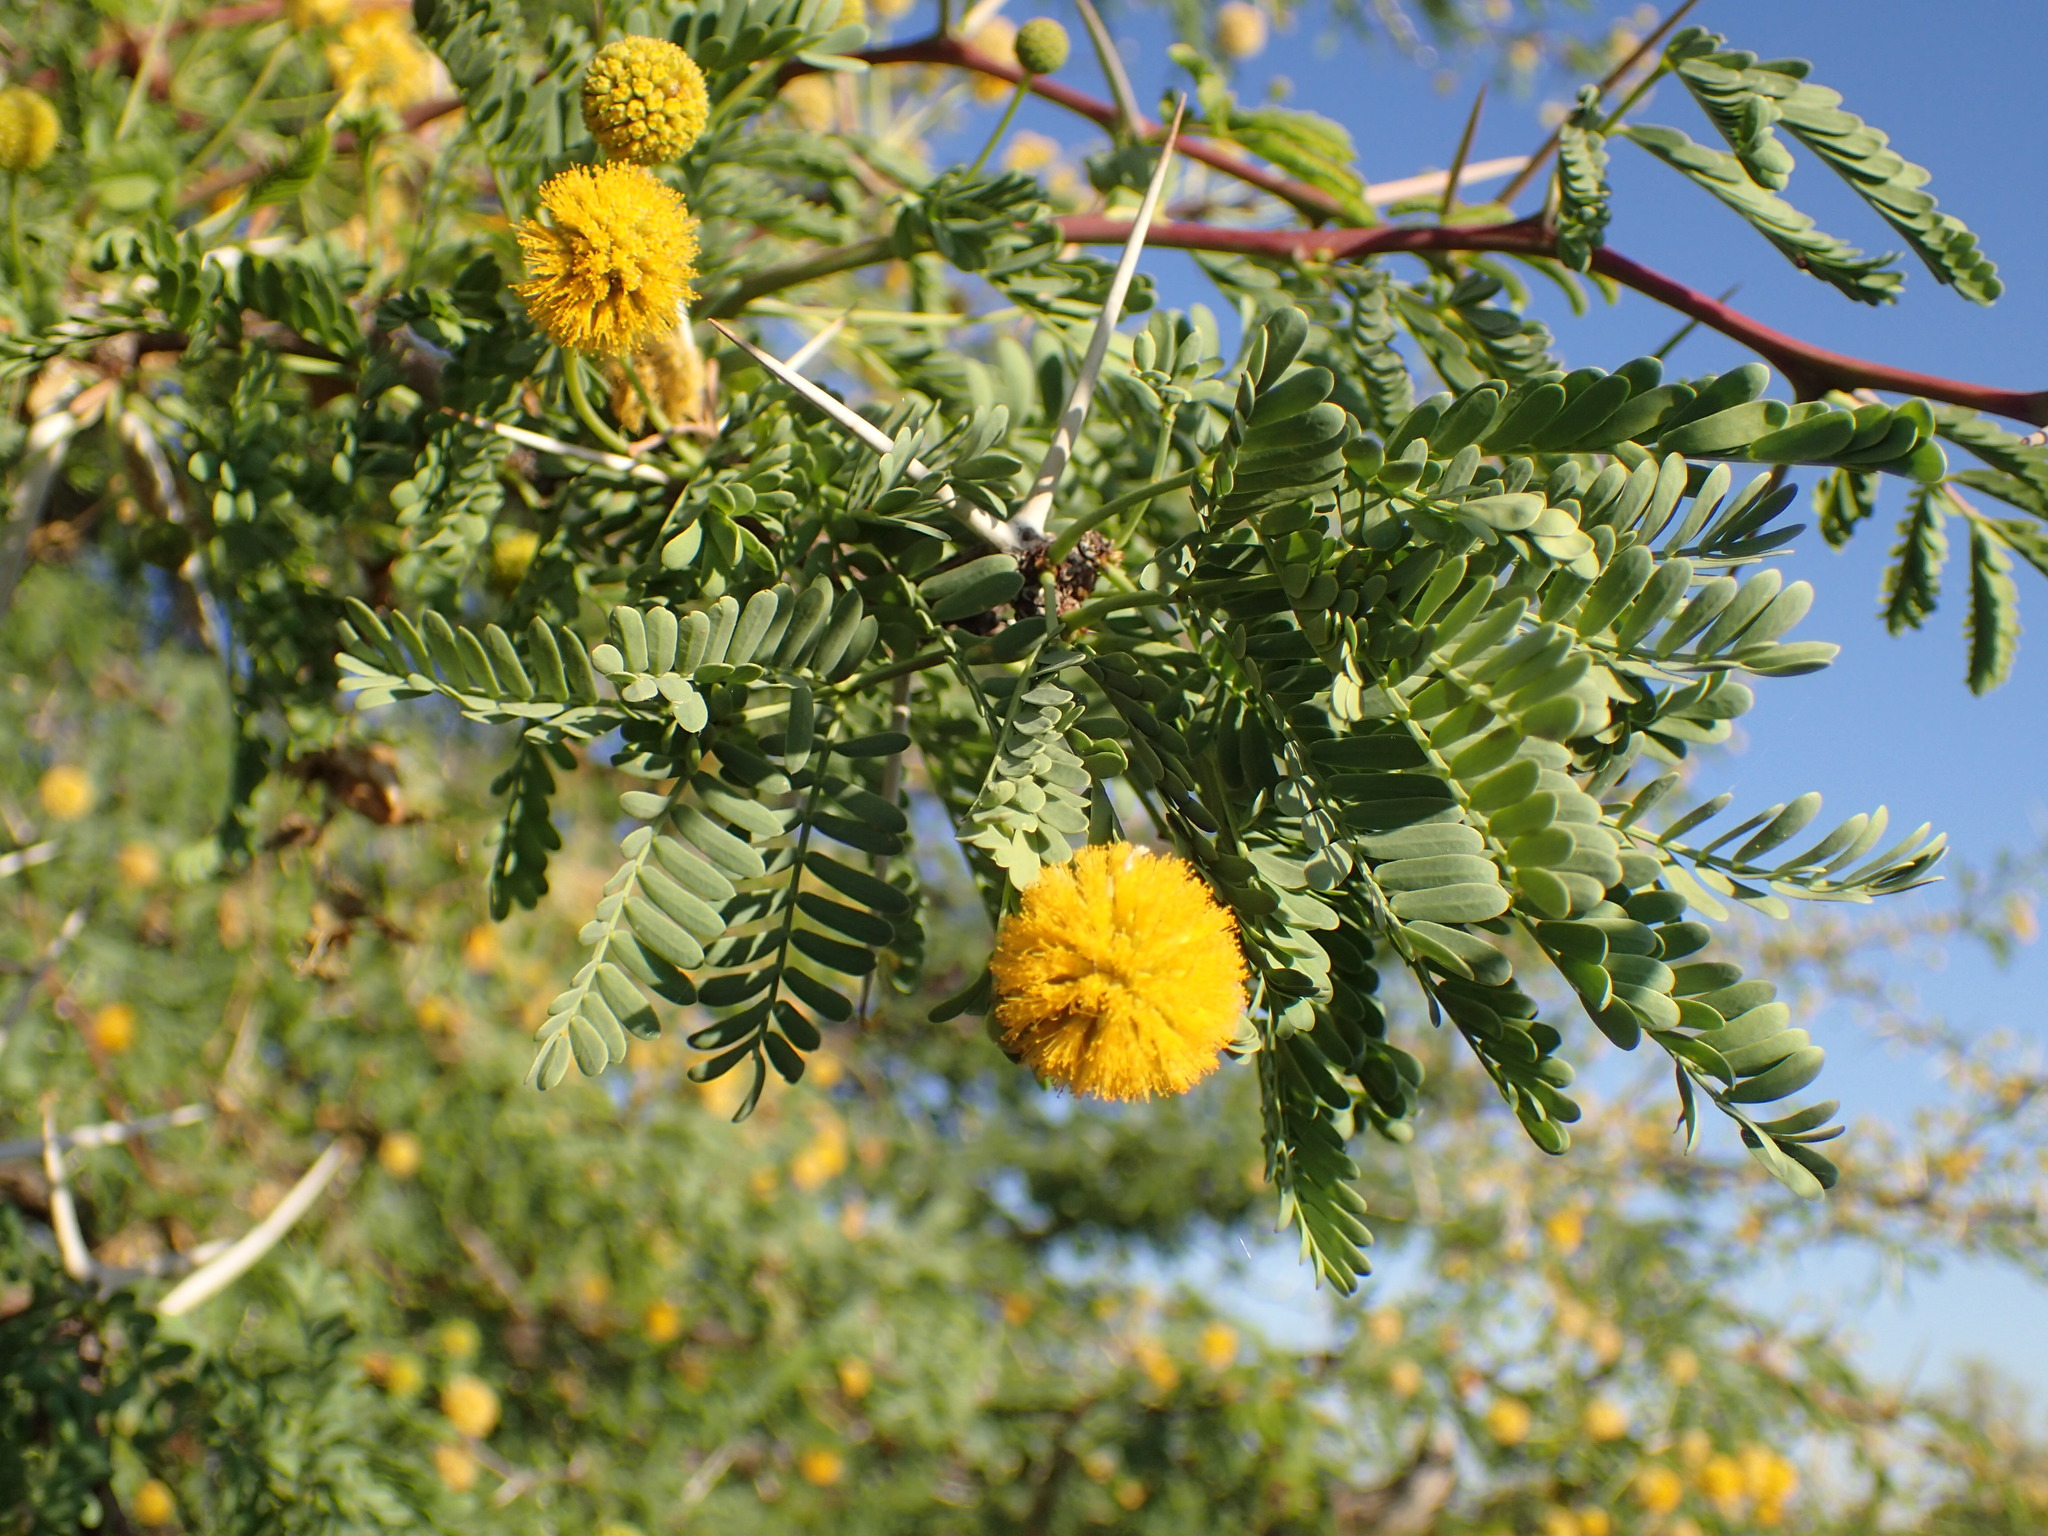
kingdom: Plantae
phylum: Tracheophyta
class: Magnoliopsida
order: Fabales
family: Fabaceae
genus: Vachellia
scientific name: Vachellia erioloba
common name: Camel thorn
